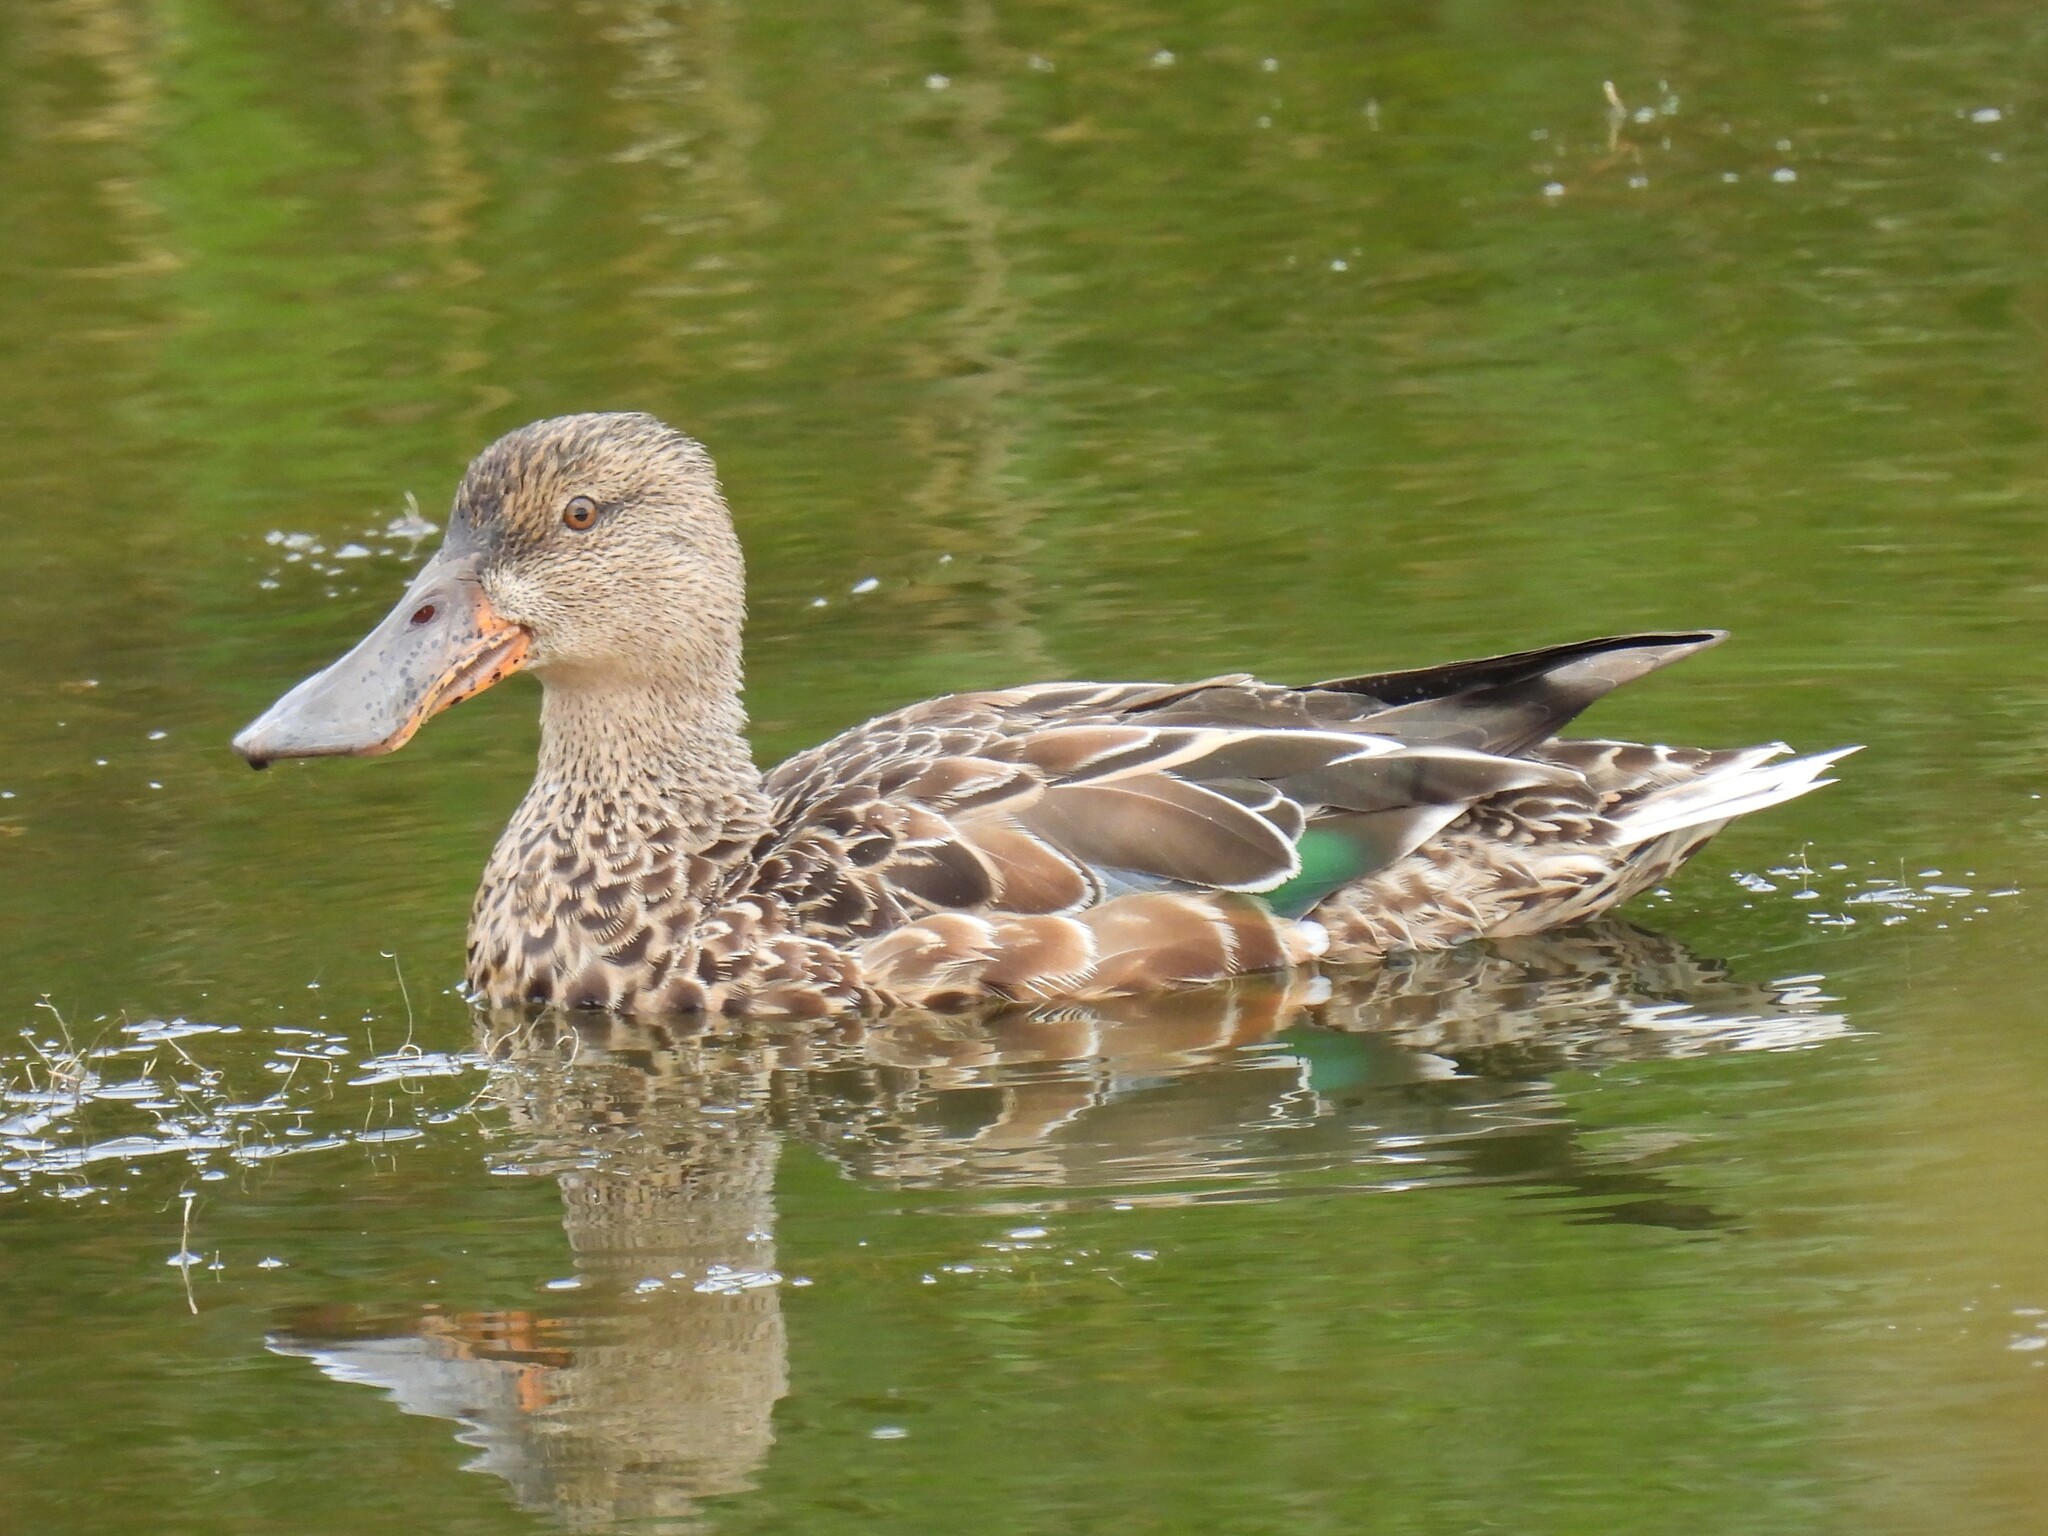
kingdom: Animalia
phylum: Chordata
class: Aves
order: Anseriformes
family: Anatidae
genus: Spatula
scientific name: Spatula clypeata
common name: Northern shoveler
